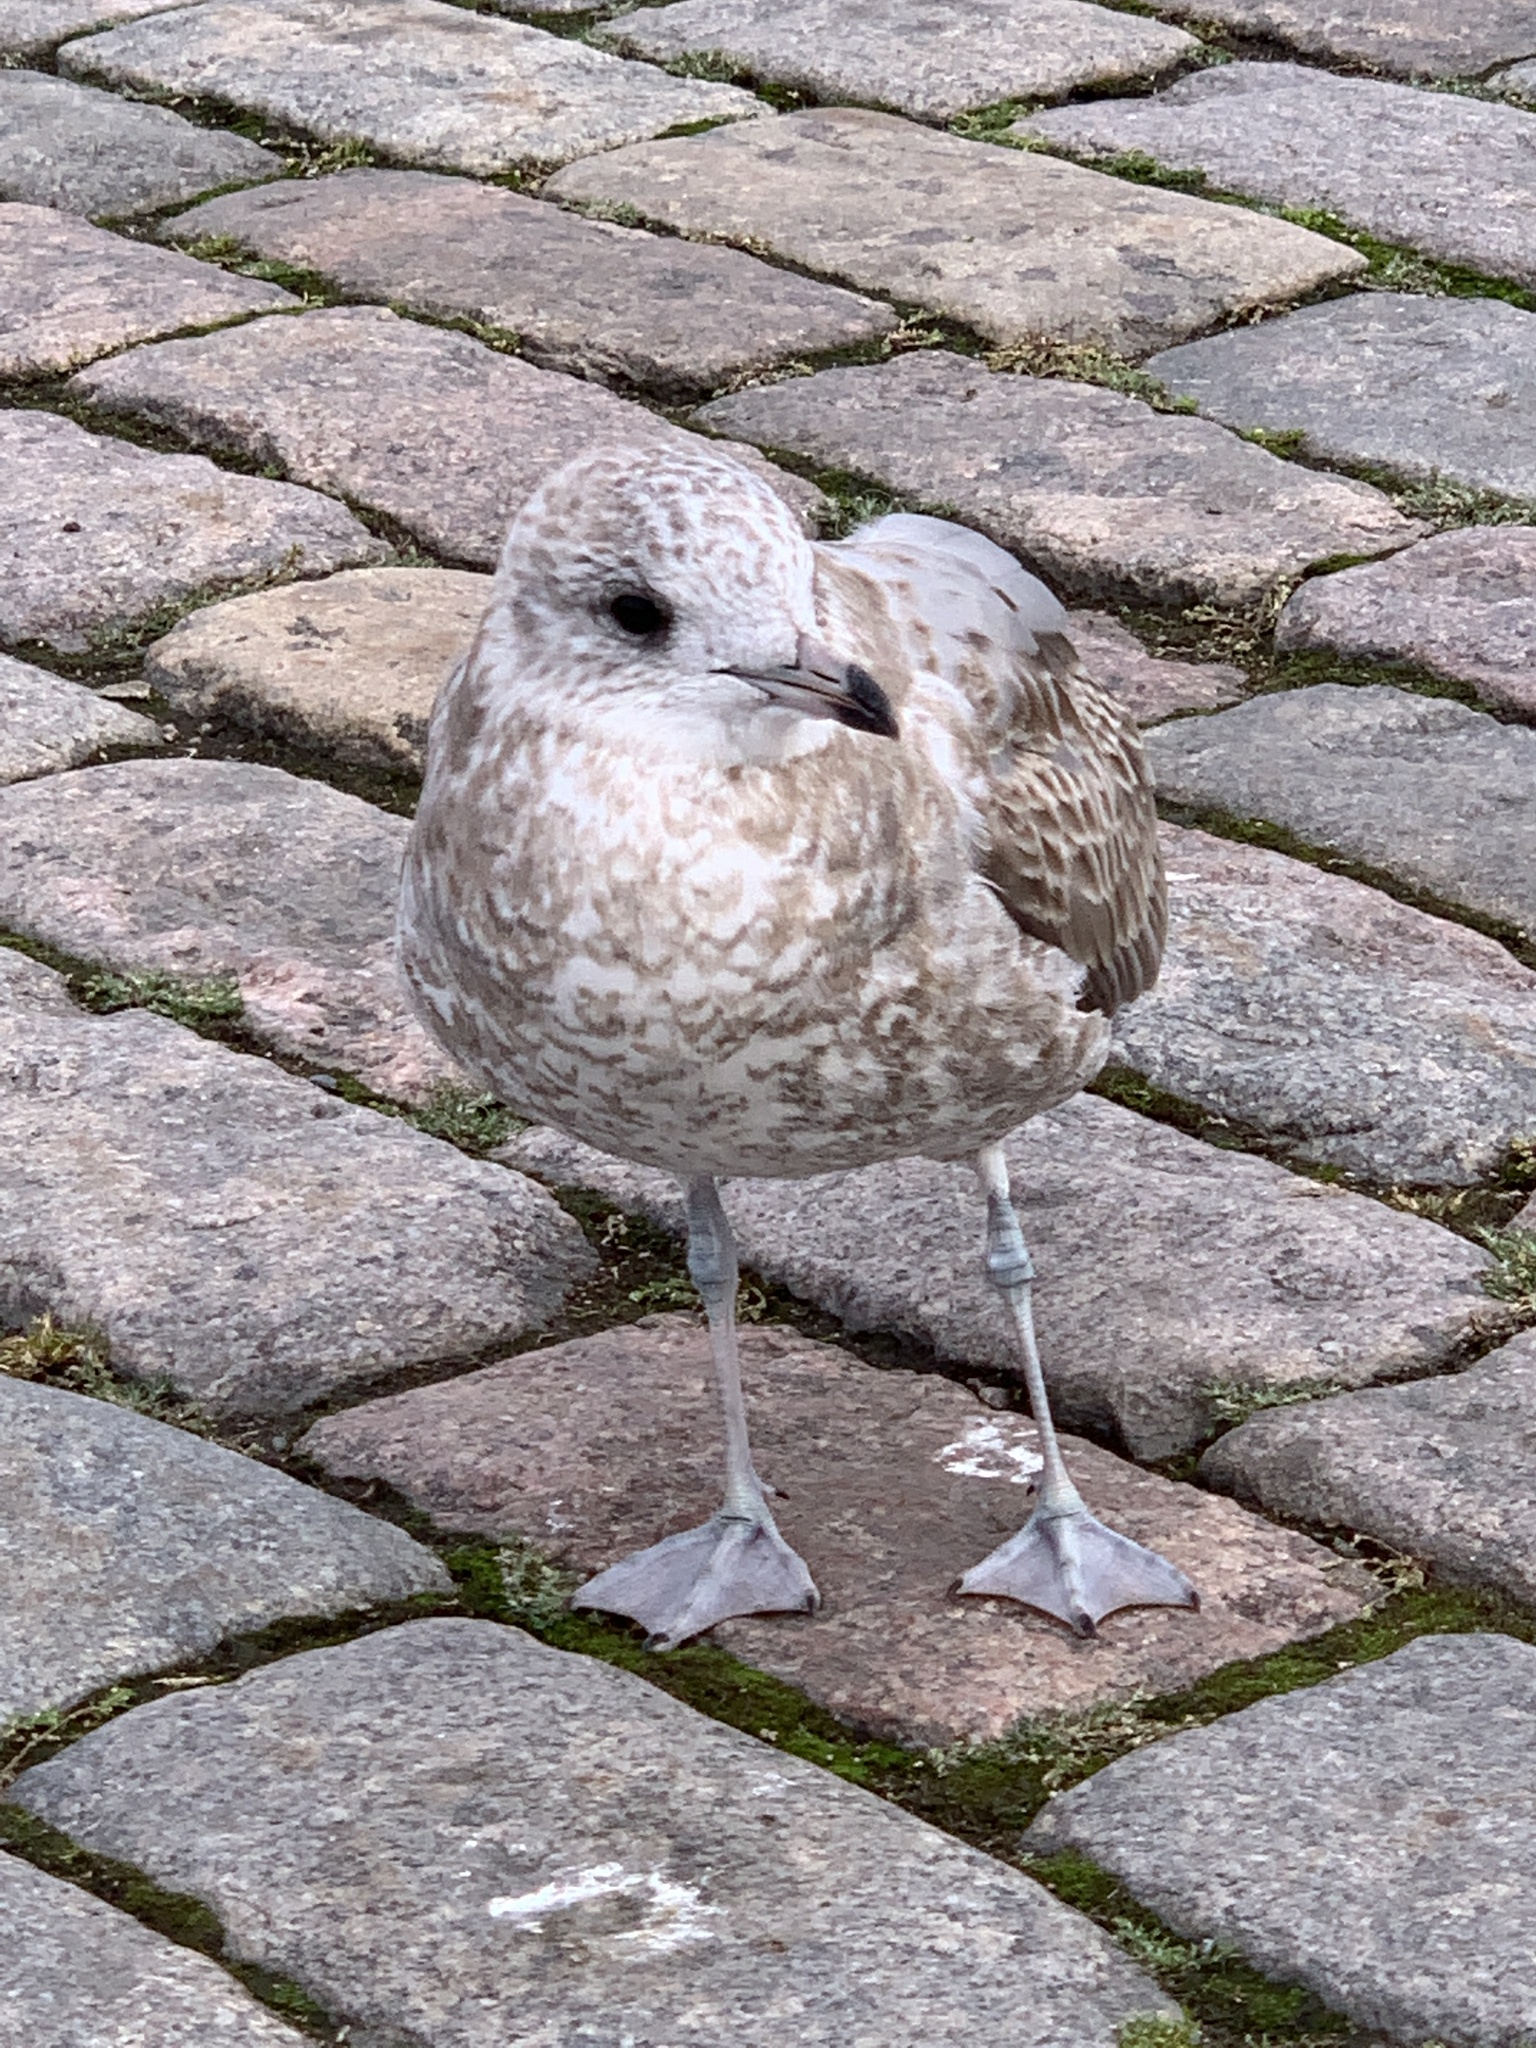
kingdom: Animalia
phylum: Chordata
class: Aves
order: Charadriiformes
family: Laridae
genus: Larus
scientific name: Larus canus
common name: Mew gull
